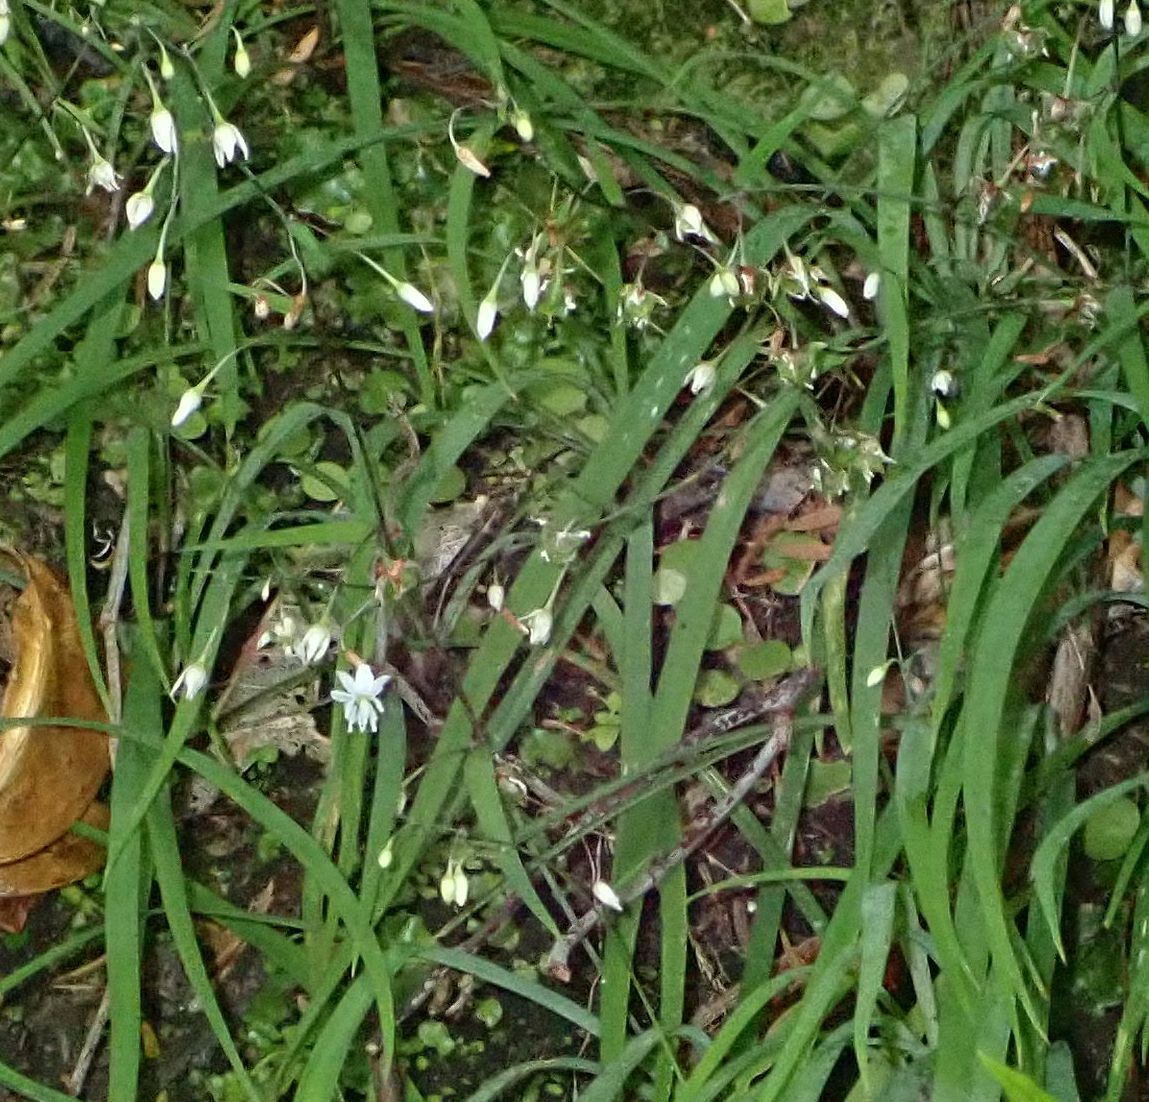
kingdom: Plantae
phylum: Tracheophyta
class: Liliopsida
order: Asparagales
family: Asparagaceae
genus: Arthropodium
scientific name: Arthropodium candidum
